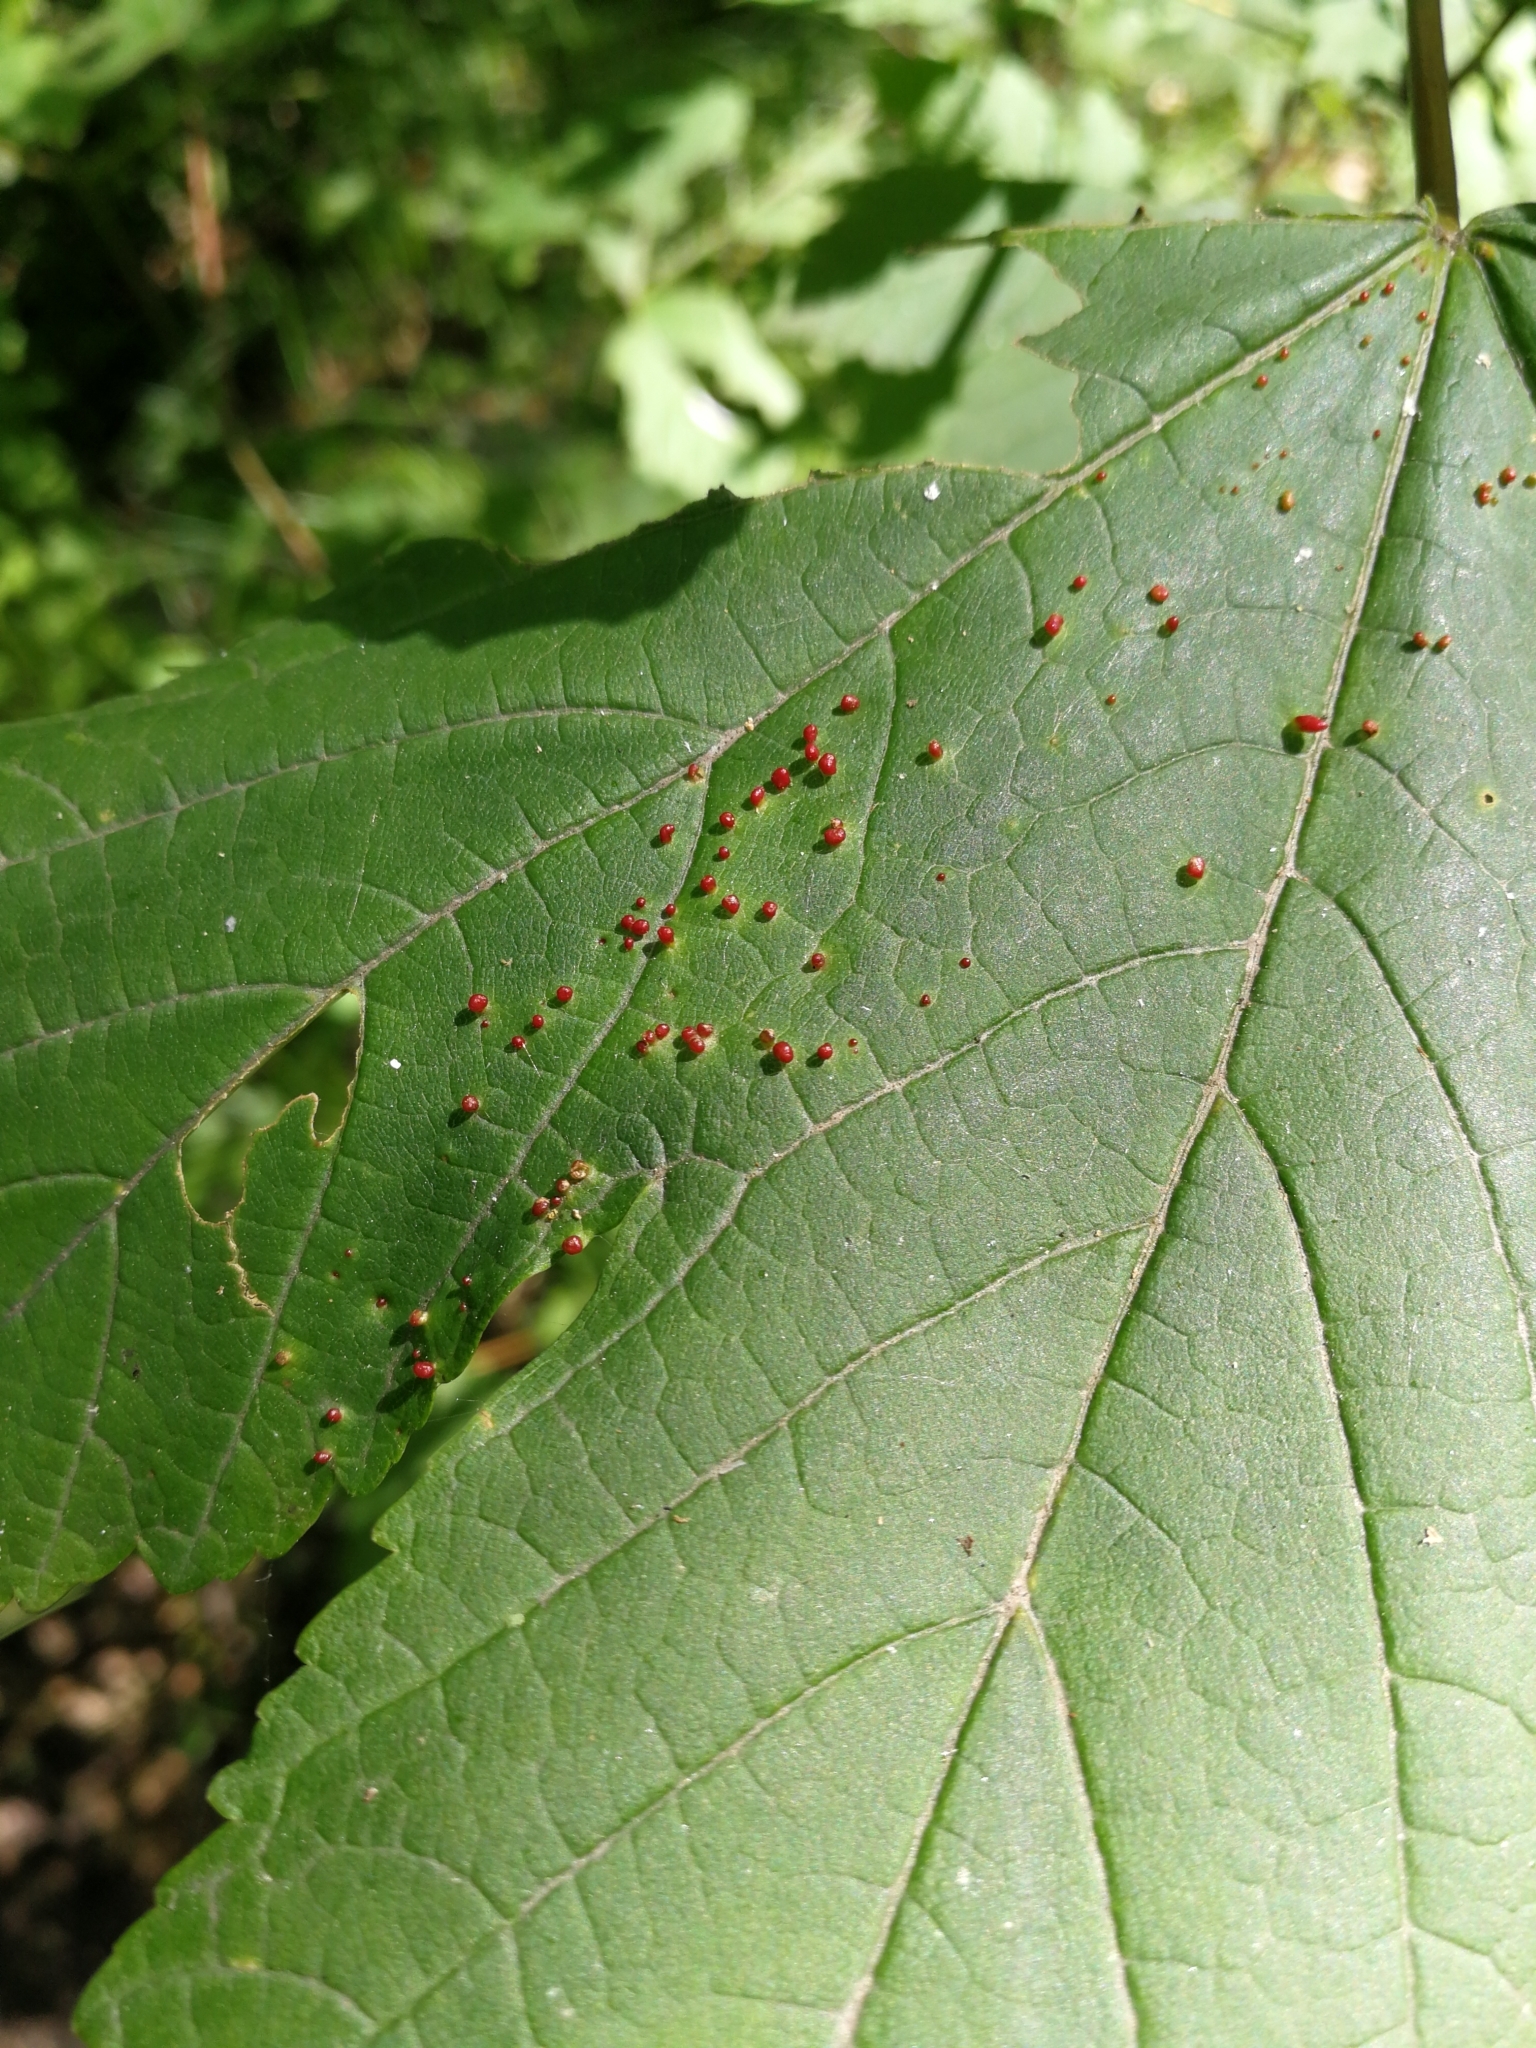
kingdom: Animalia
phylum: Arthropoda
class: Arachnida
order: Trombidiformes
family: Eriophyidae
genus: Aceria
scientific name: Aceria cephaloneus
